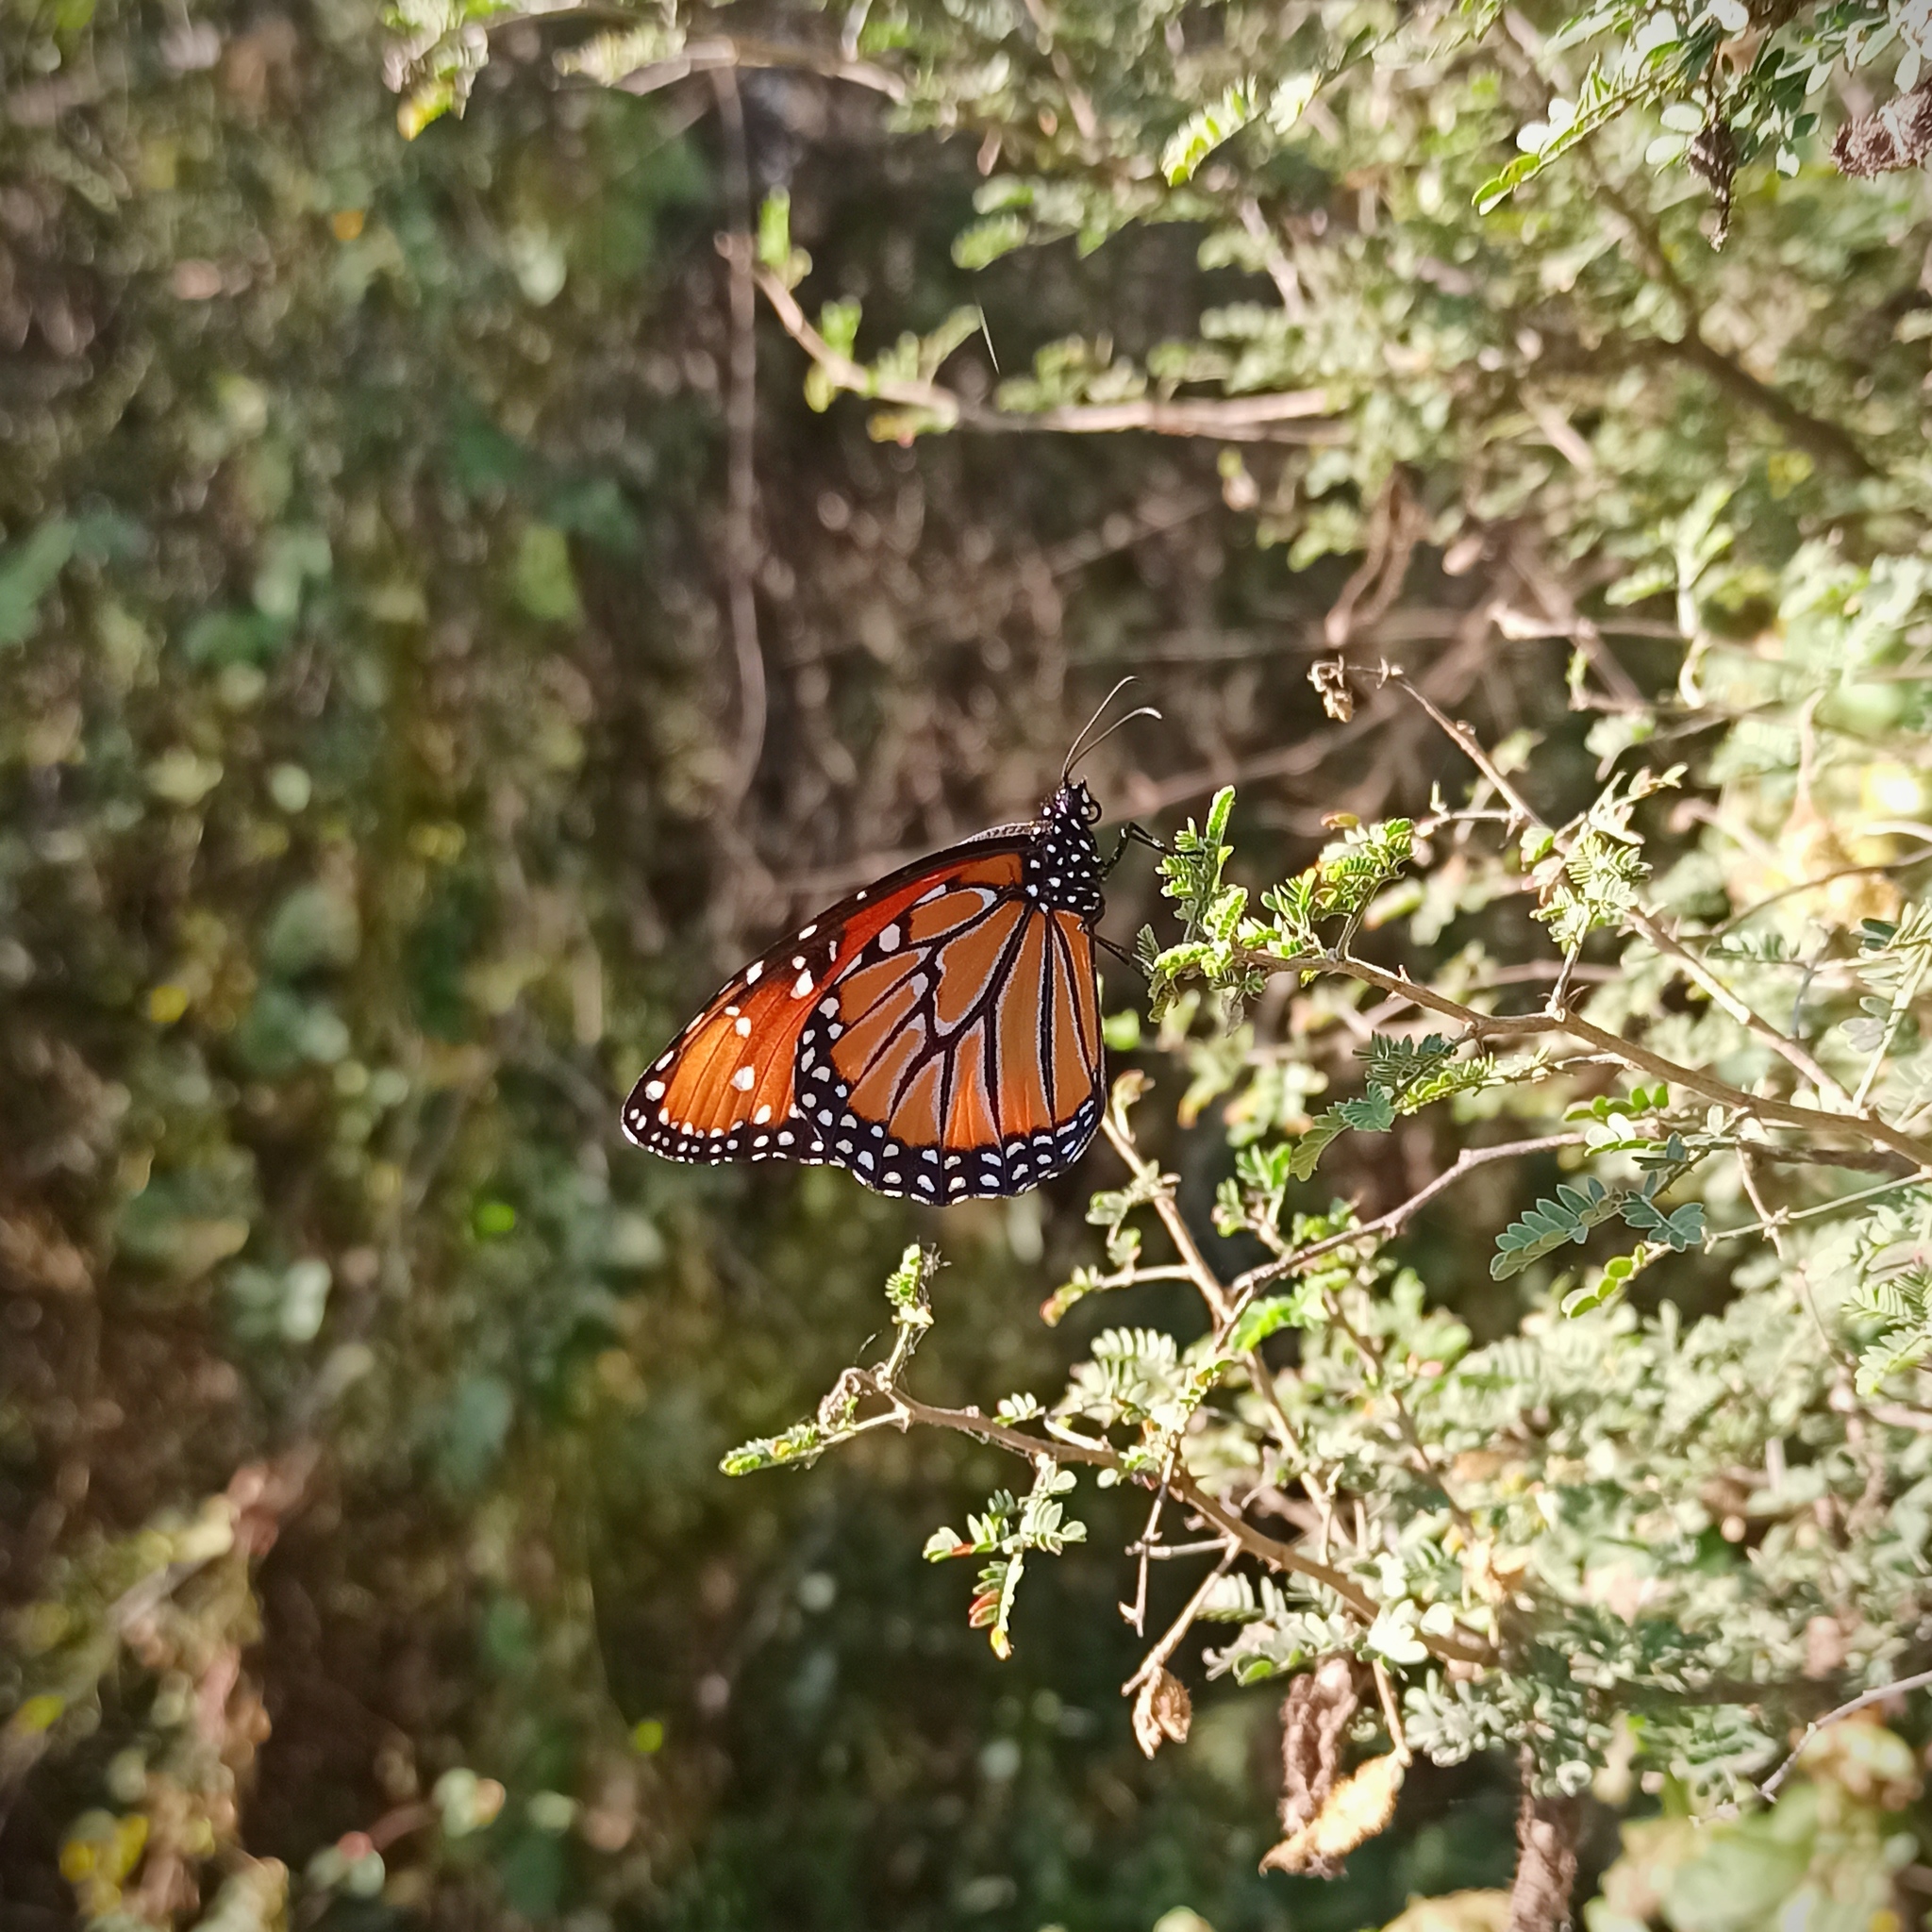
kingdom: Animalia
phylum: Arthropoda
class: Insecta
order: Lepidoptera
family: Nymphalidae
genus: Danaus
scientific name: Danaus gilippus
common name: Queen
